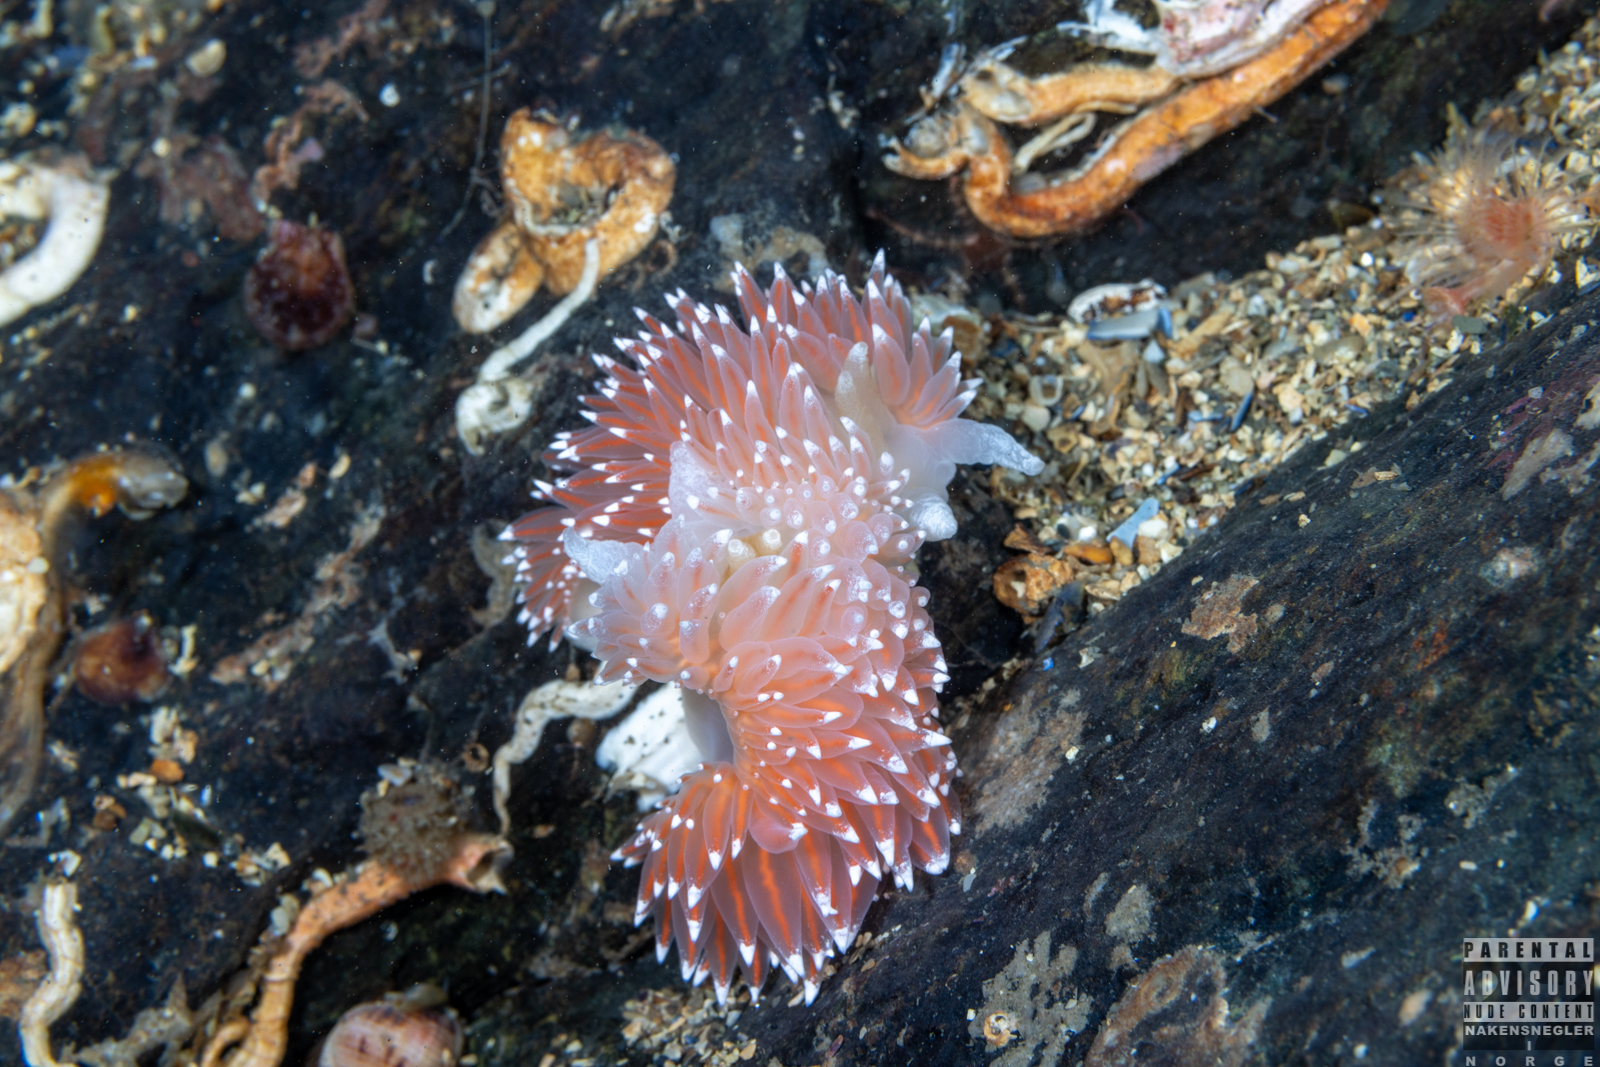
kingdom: Animalia
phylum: Mollusca
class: Gastropoda
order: Nudibranchia
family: Coryphellidae
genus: Coryphella
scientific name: Coryphella nobilis
